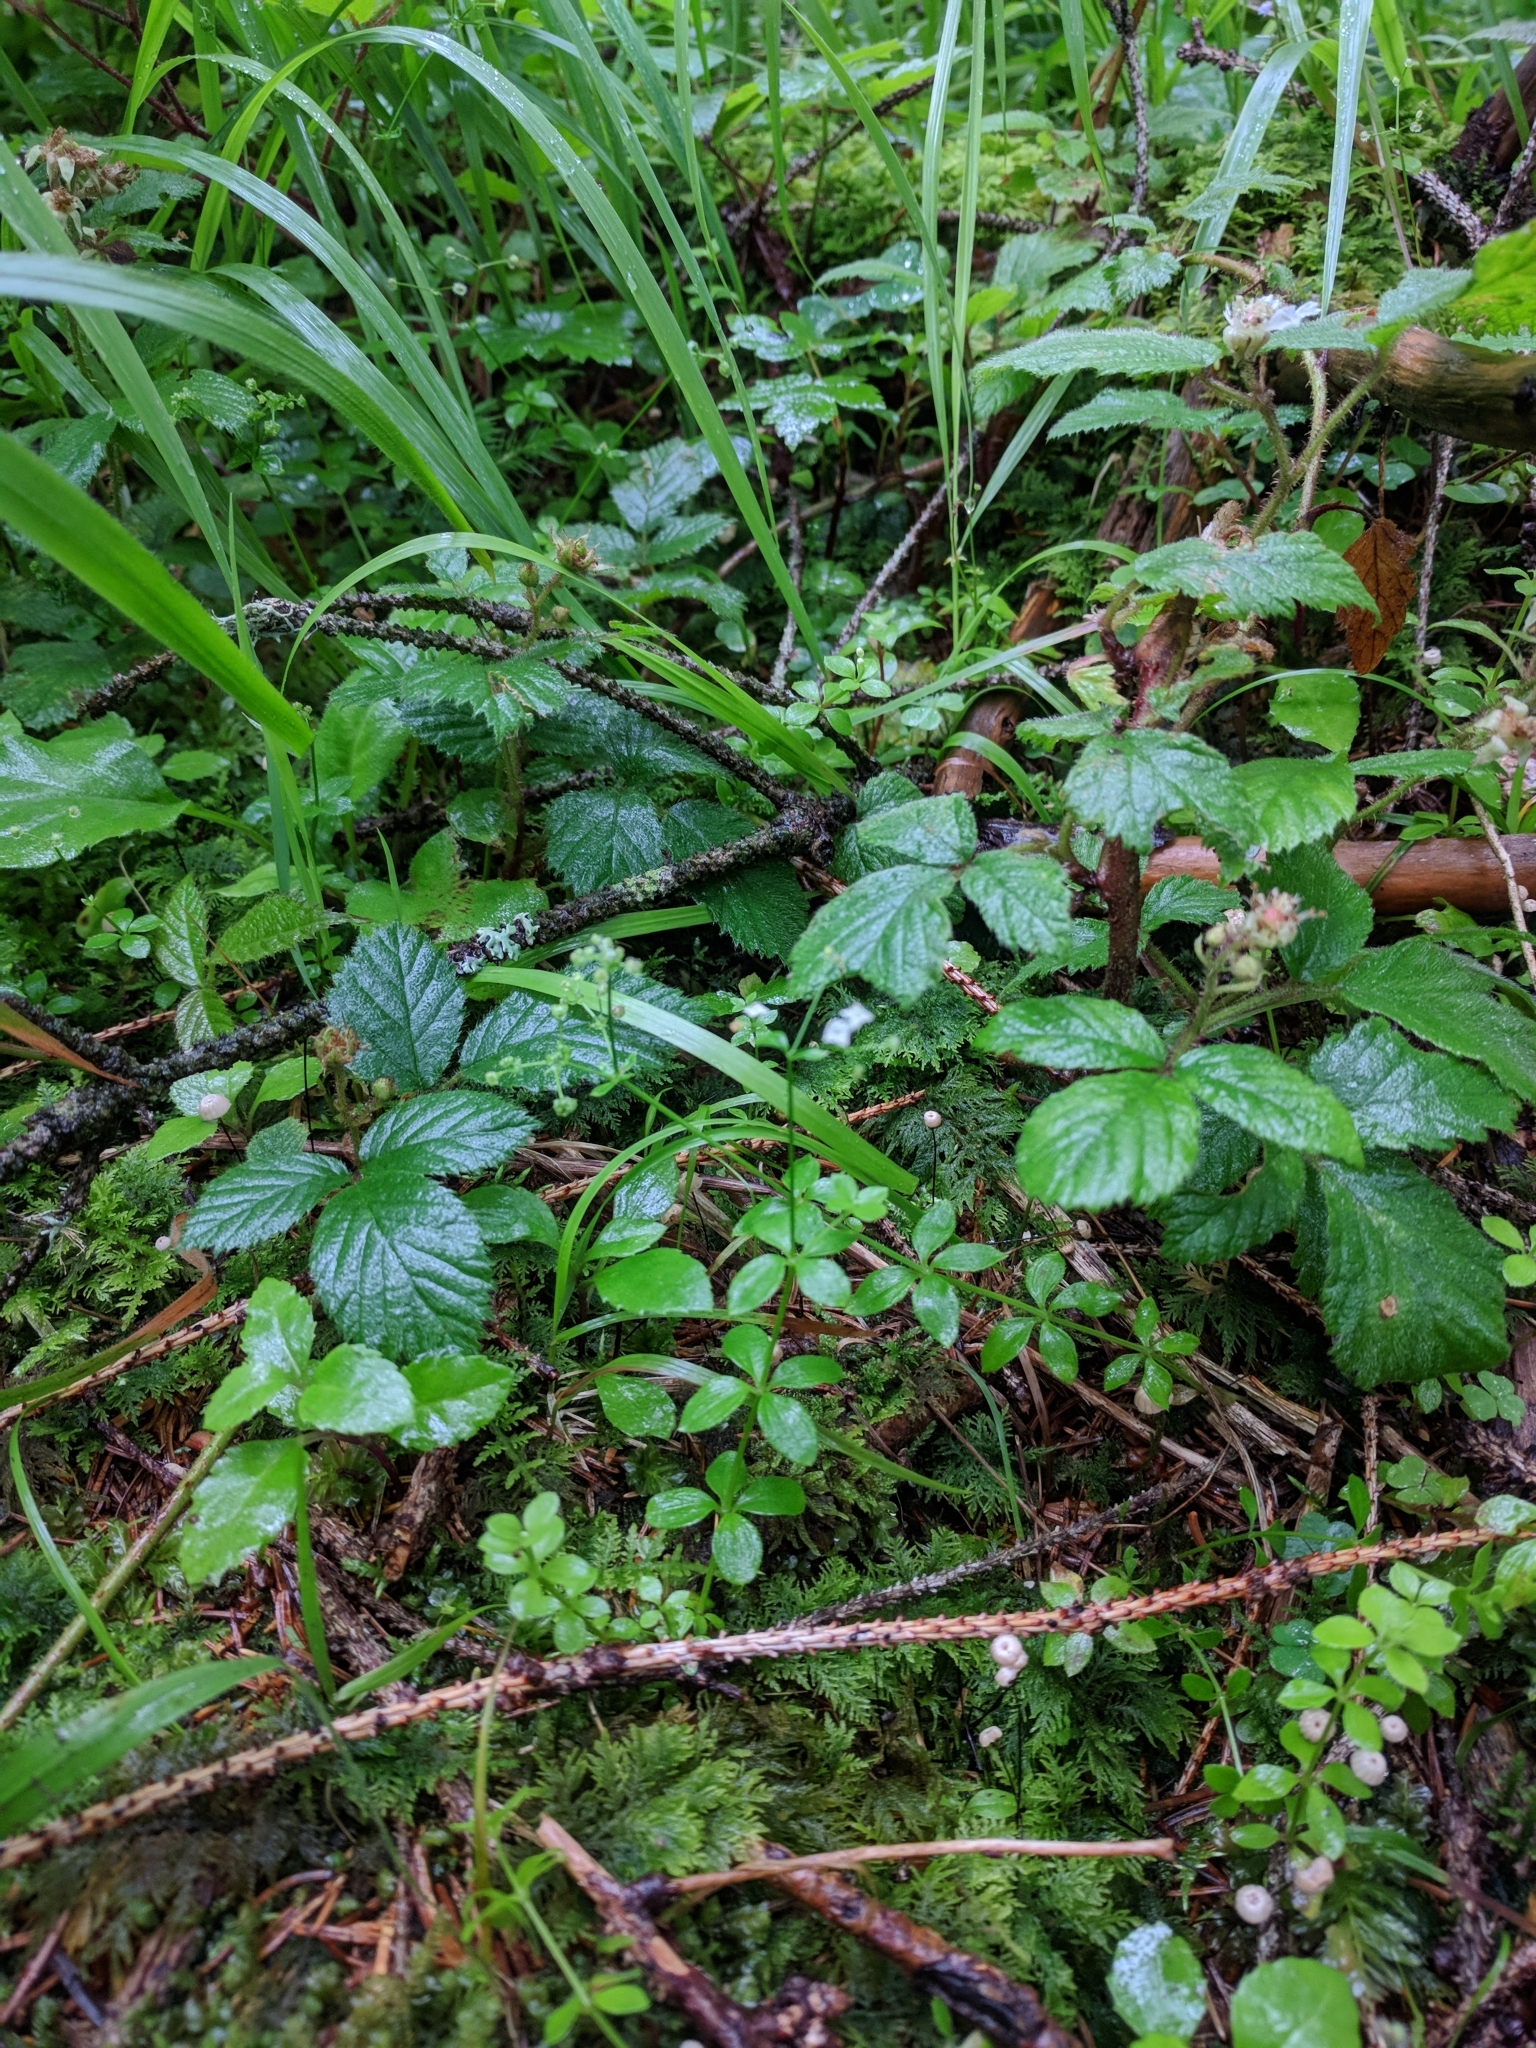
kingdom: Plantae
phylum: Tracheophyta
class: Magnoliopsida
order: Gentianales
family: Rubiaceae
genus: Galium
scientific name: Galium rotundifolium
